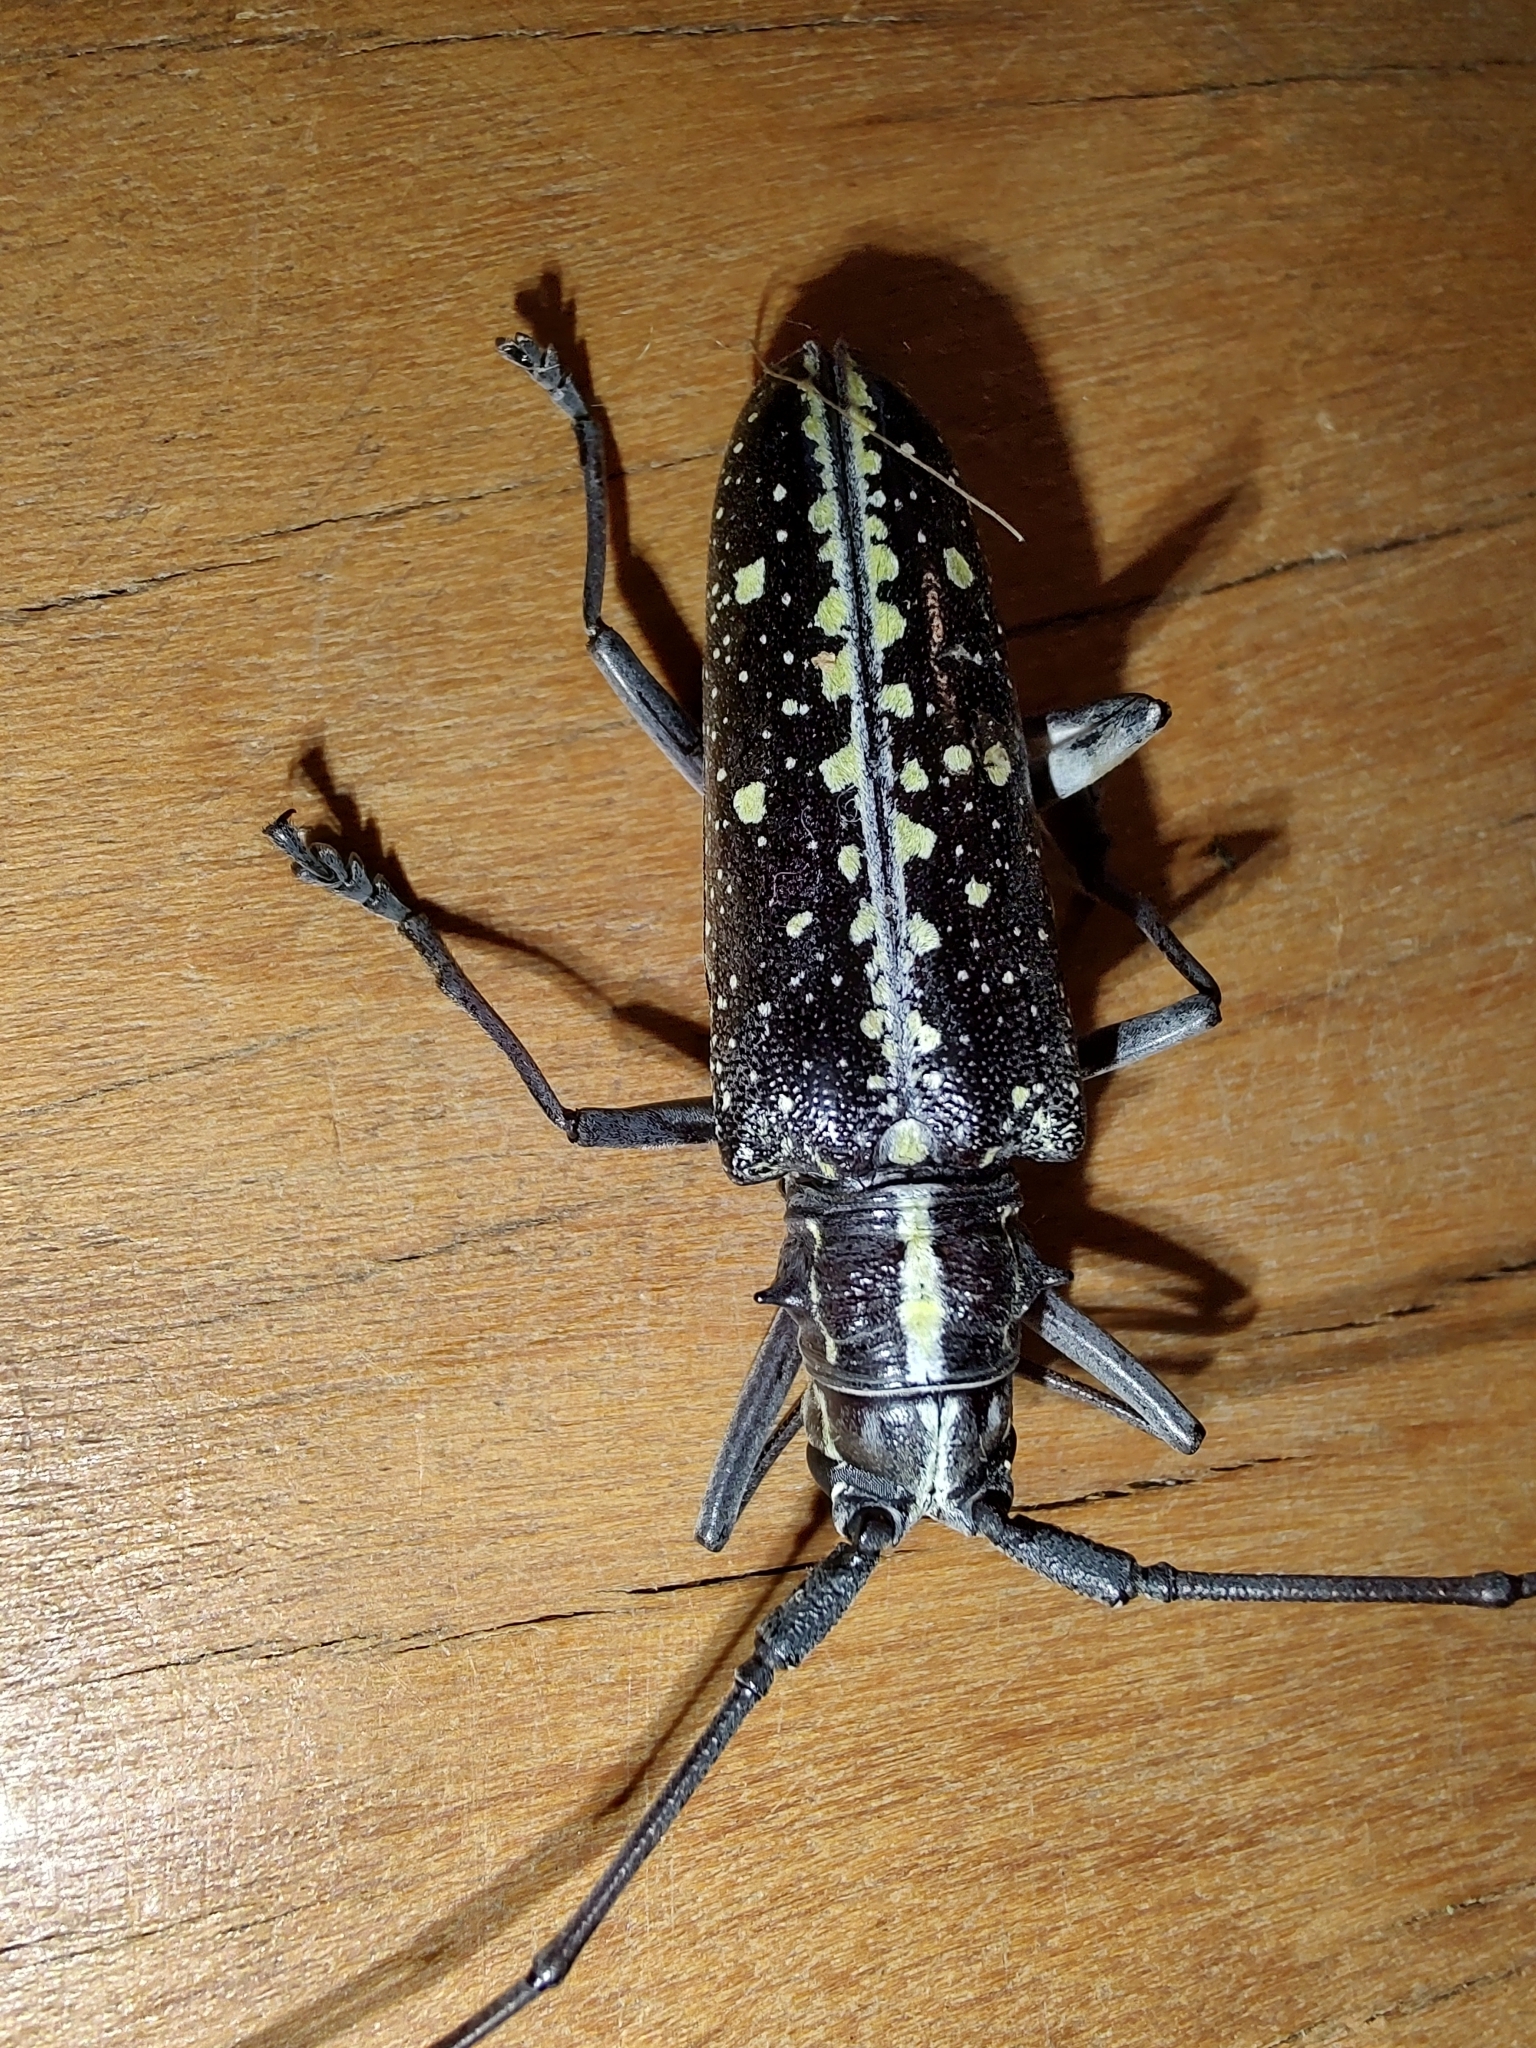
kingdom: Animalia
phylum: Arthropoda
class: Insecta
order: Coleoptera
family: Cerambycidae
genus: Taeniotes
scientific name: Taeniotes amazonum
